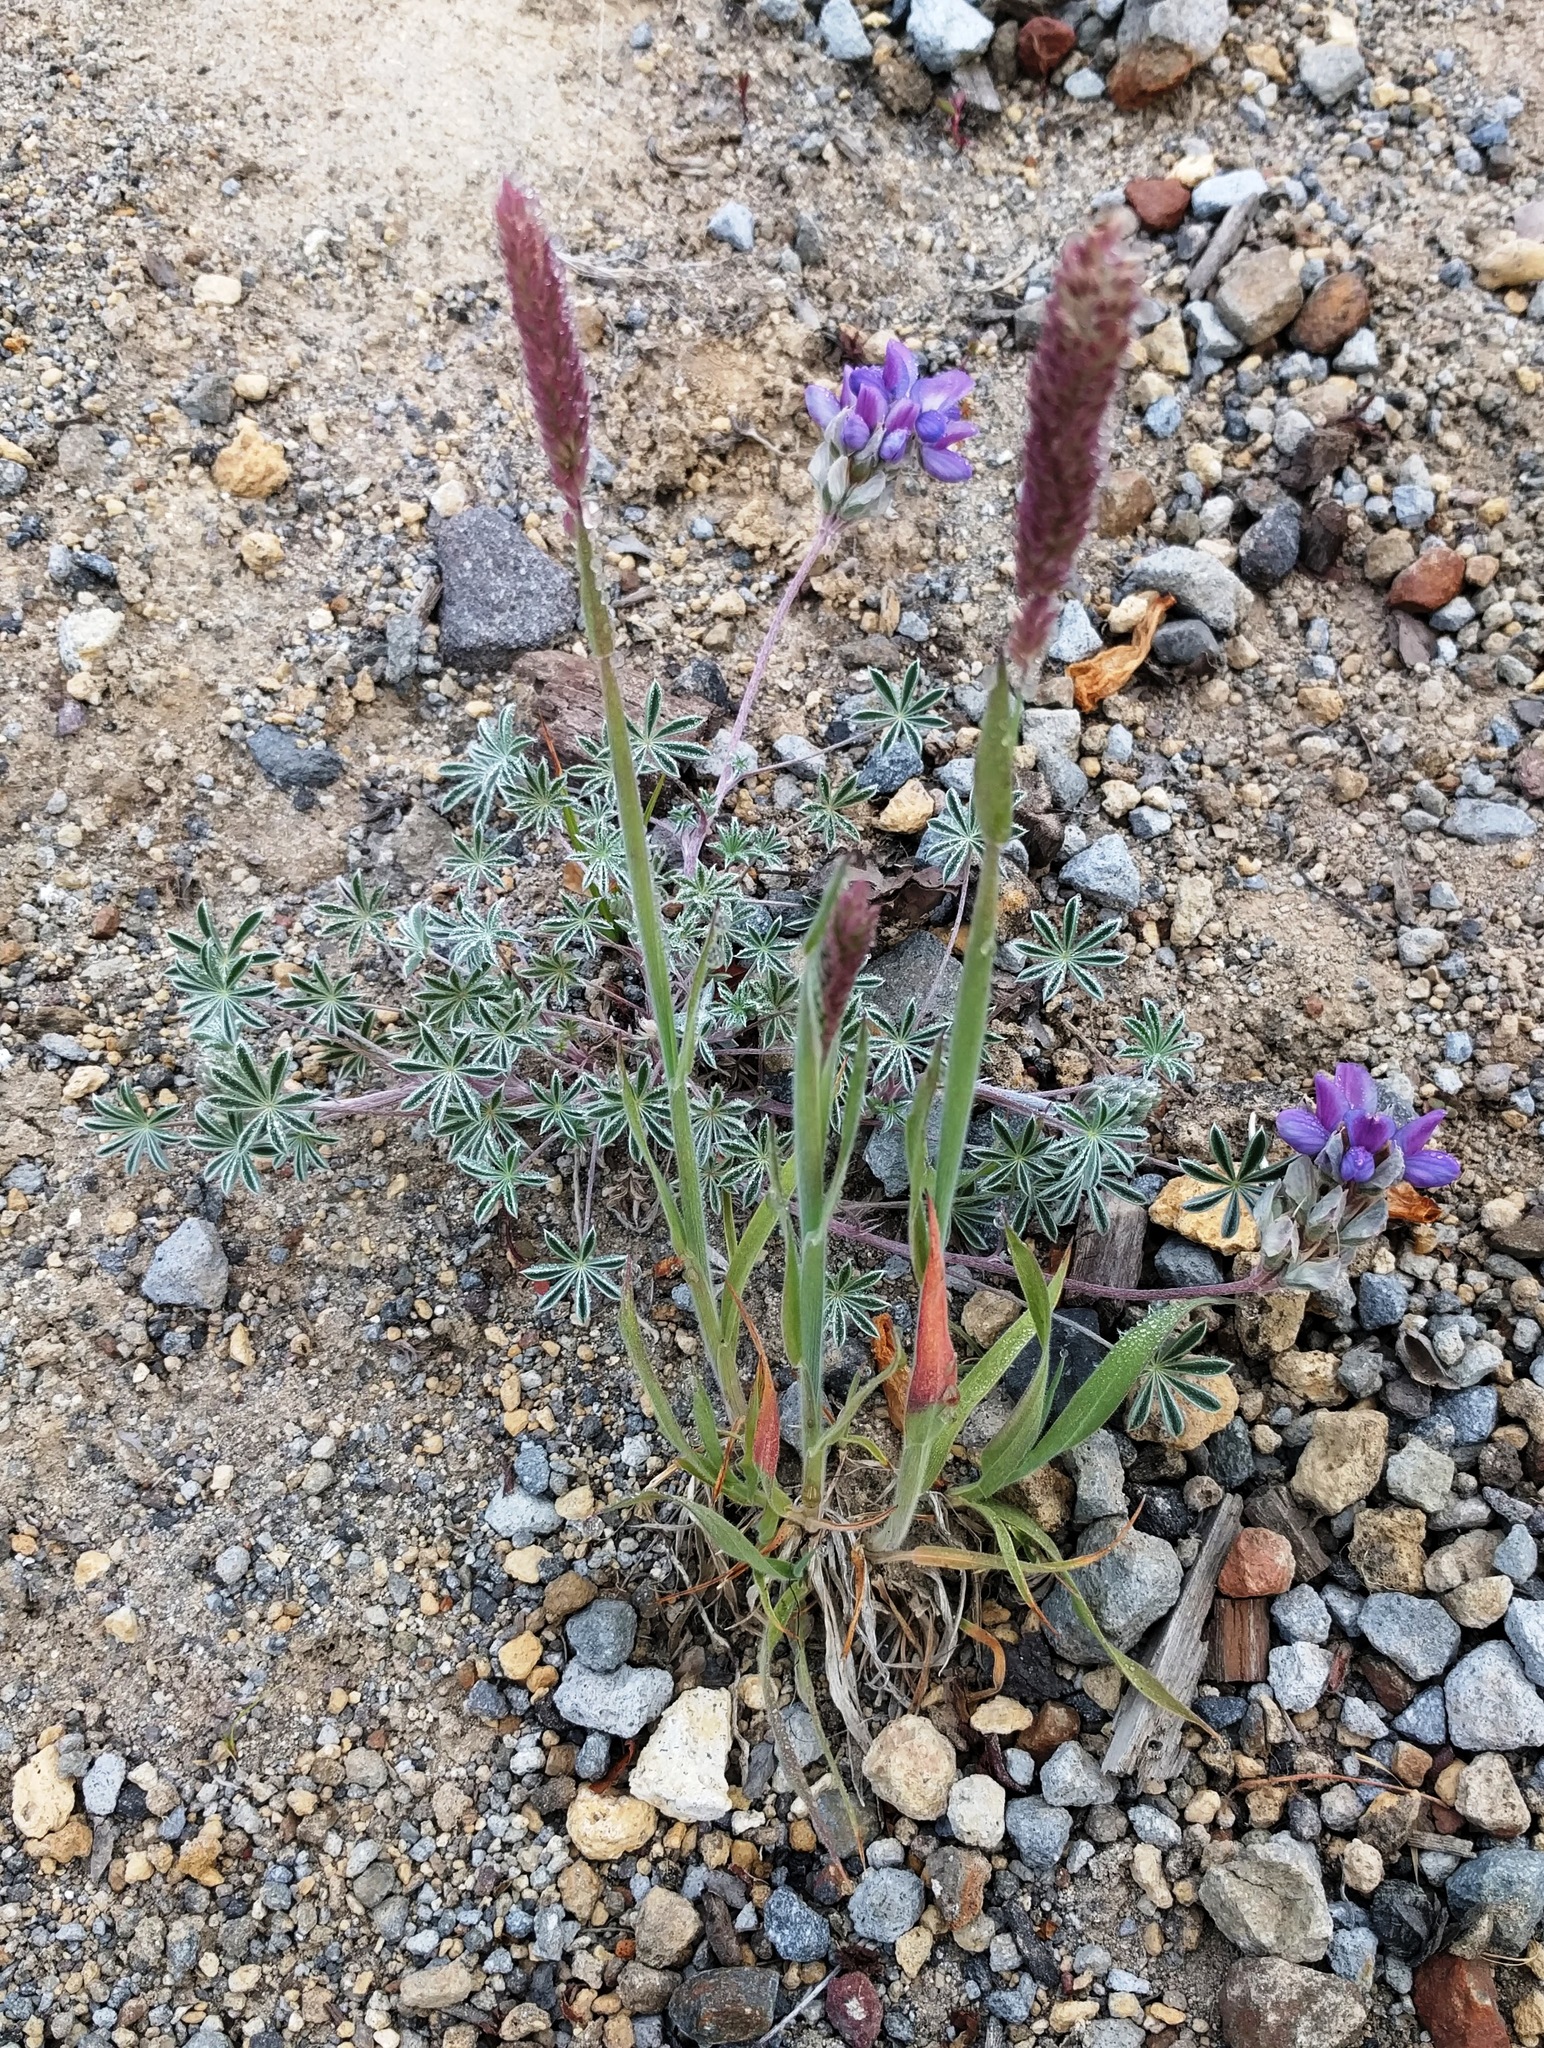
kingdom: Plantae
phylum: Tracheophyta
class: Liliopsida
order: Poales
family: Poaceae
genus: Phleum
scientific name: Phleum pratense
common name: Timothy grass
